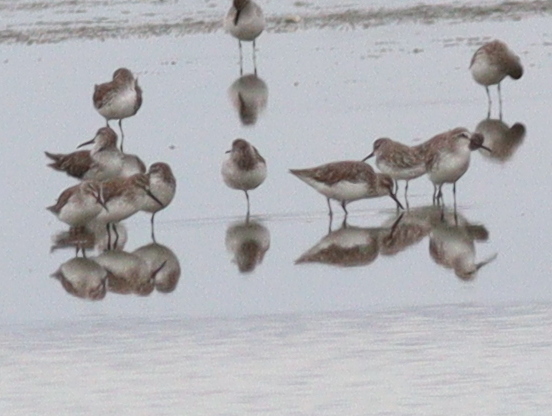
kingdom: Animalia
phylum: Chordata
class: Aves
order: Charadriiformes
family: Scolopacidae
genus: Calidris
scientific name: Calidris falcinellus
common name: Broad-billed sandpiper
